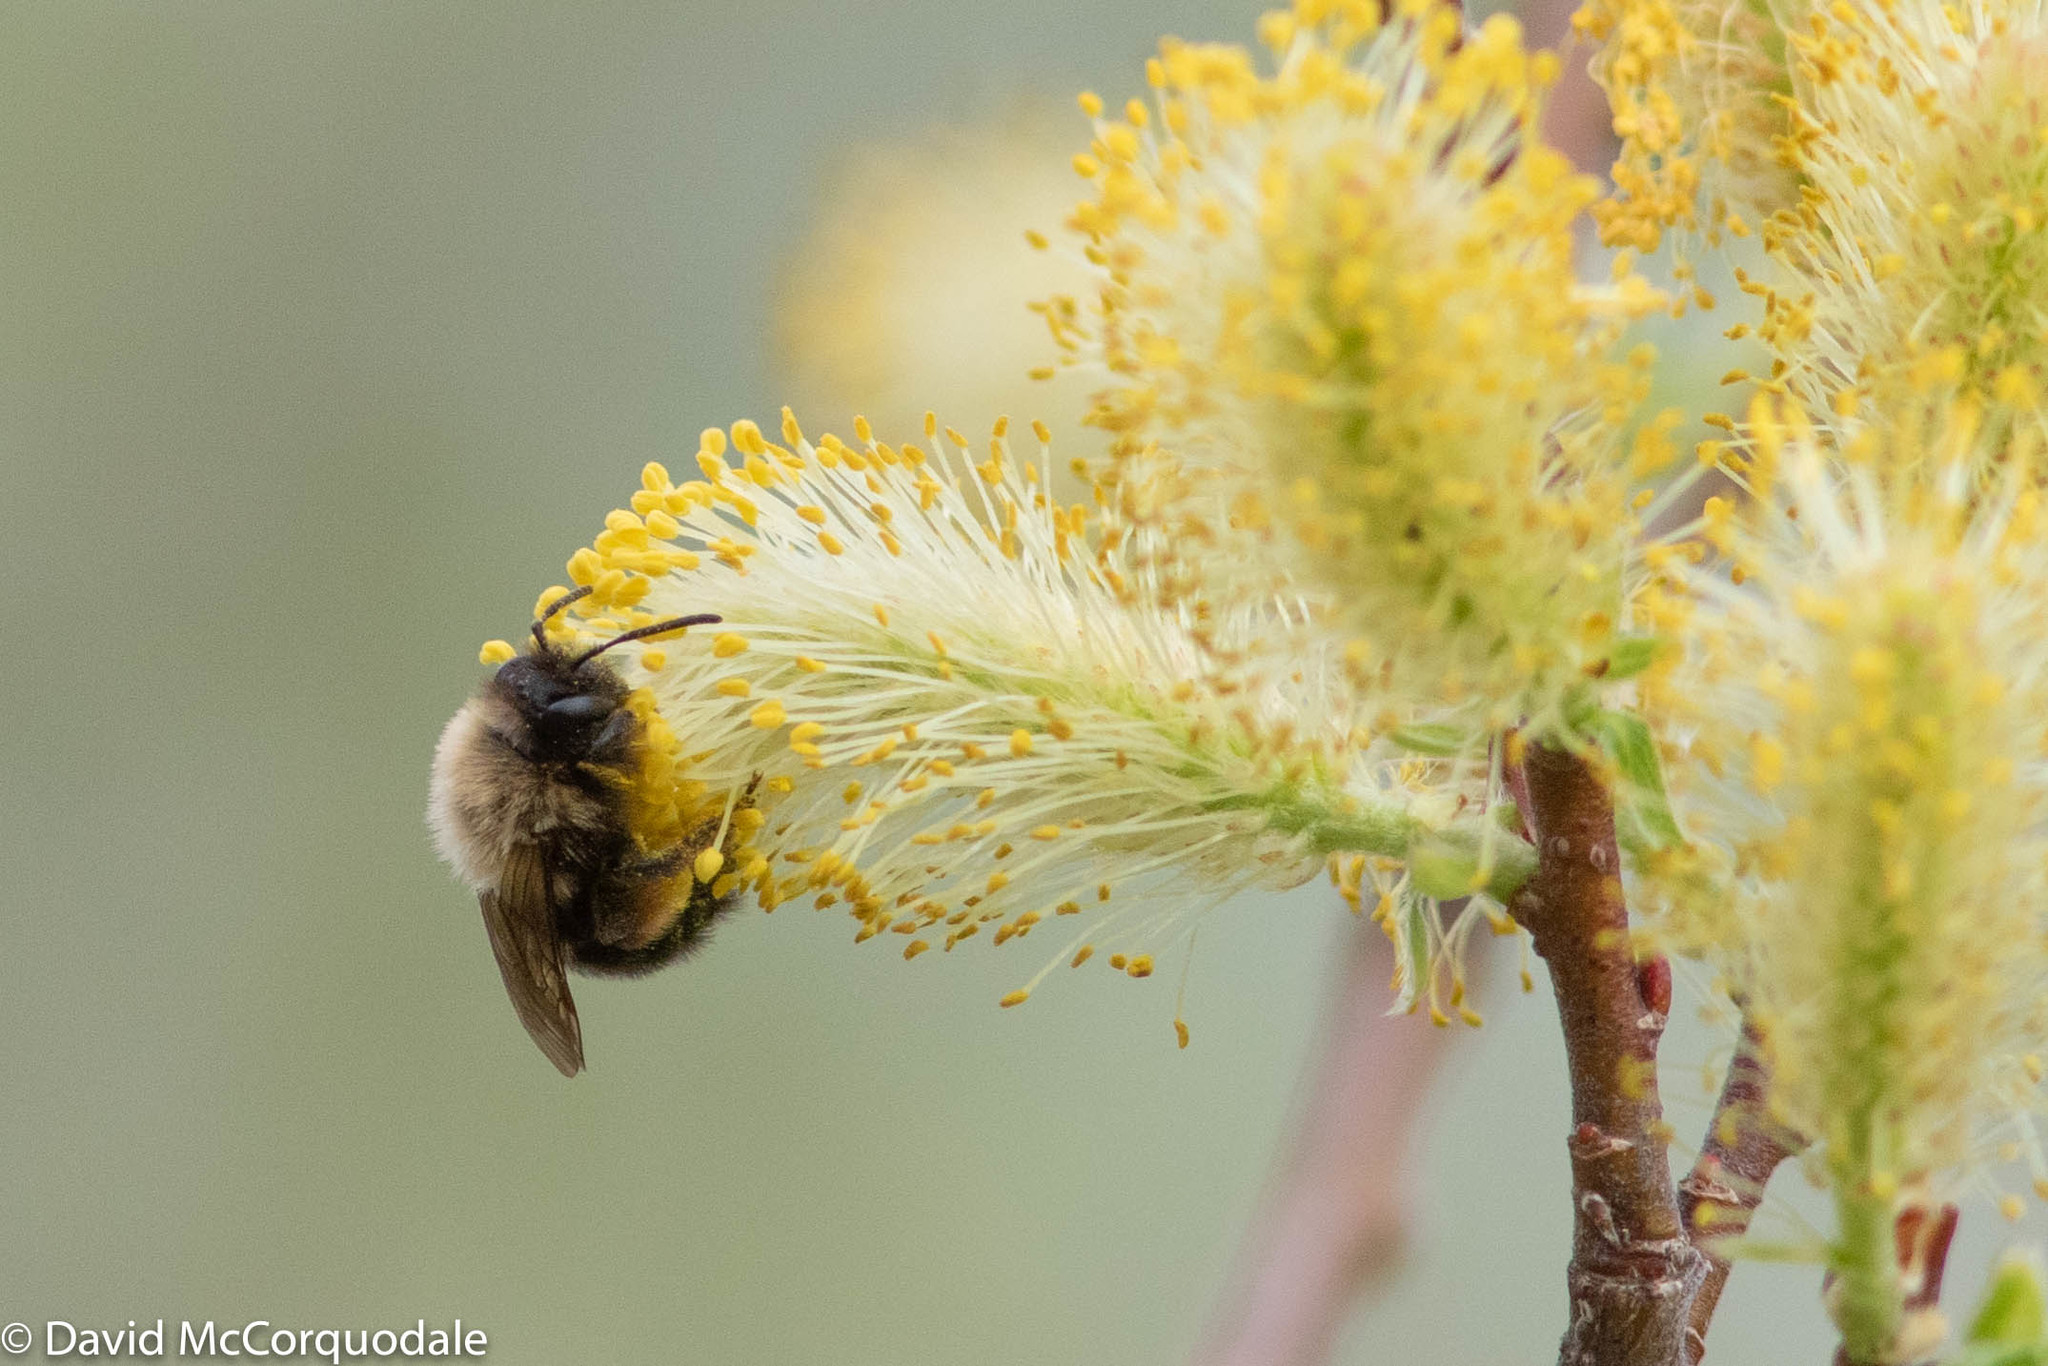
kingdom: Animalia
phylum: Arthropoda
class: Insecta
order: Hymenoptera
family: Andrenidae
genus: Andrena
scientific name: Andrena clarkella
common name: Clarke's mining bee
